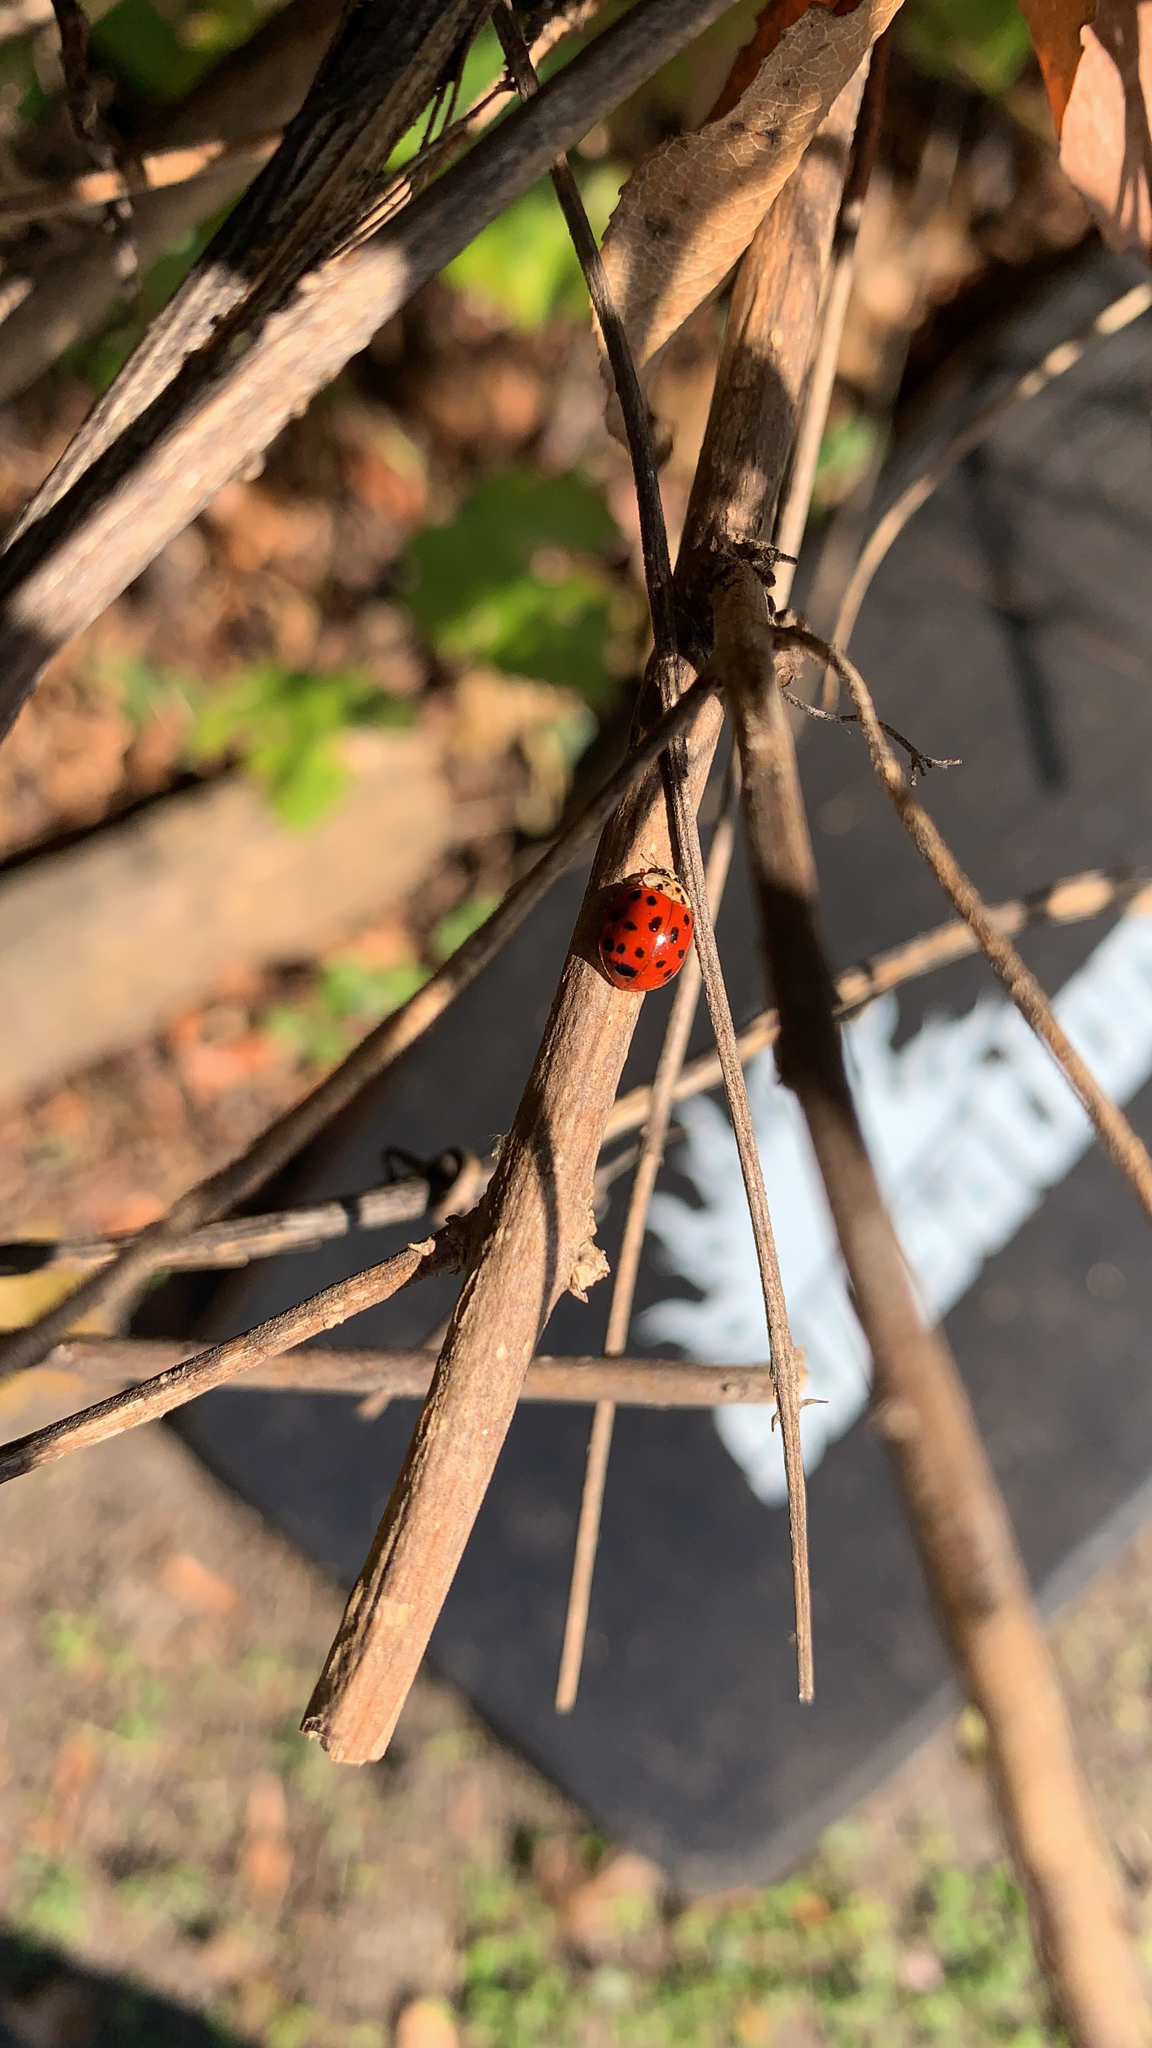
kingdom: Animalia
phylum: Arthropoda
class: Insecta
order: Coleoptera
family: Coccinellidae
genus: Harmonia
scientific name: Harmonia axyridis
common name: Harlequin ladybird
